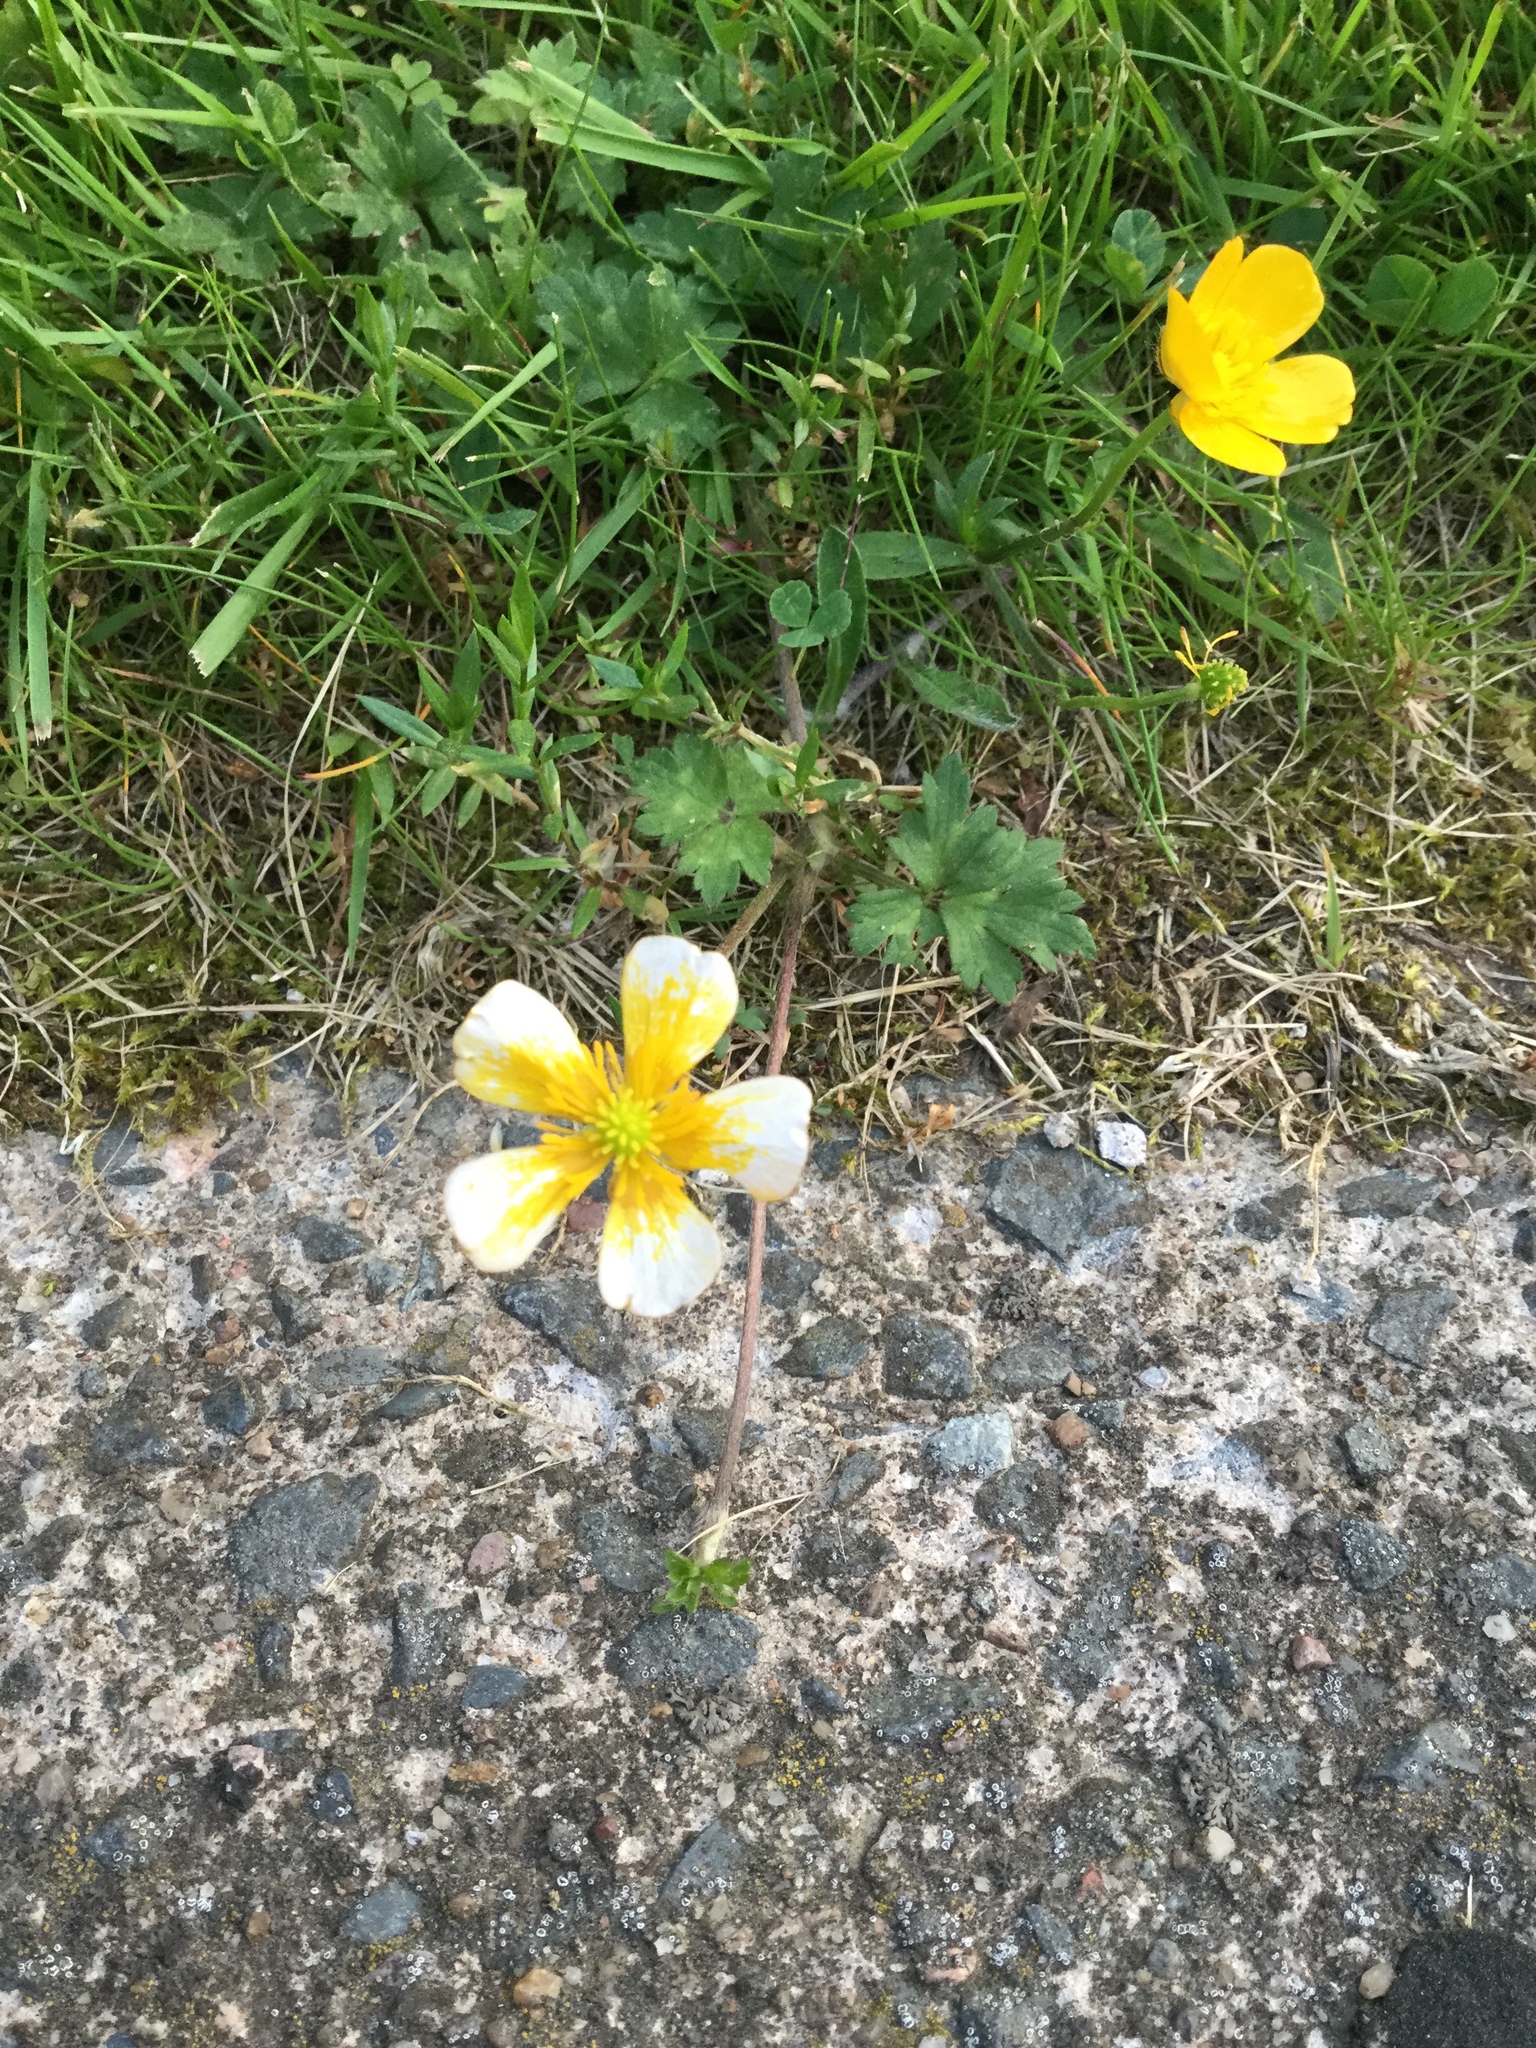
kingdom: Plantae
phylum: Tracheophyta
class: Magnoliopsida
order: Ranunculales
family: Ranunculaceae
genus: Ranunculus
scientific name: Ranunculus repens
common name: Creeping buttercup
